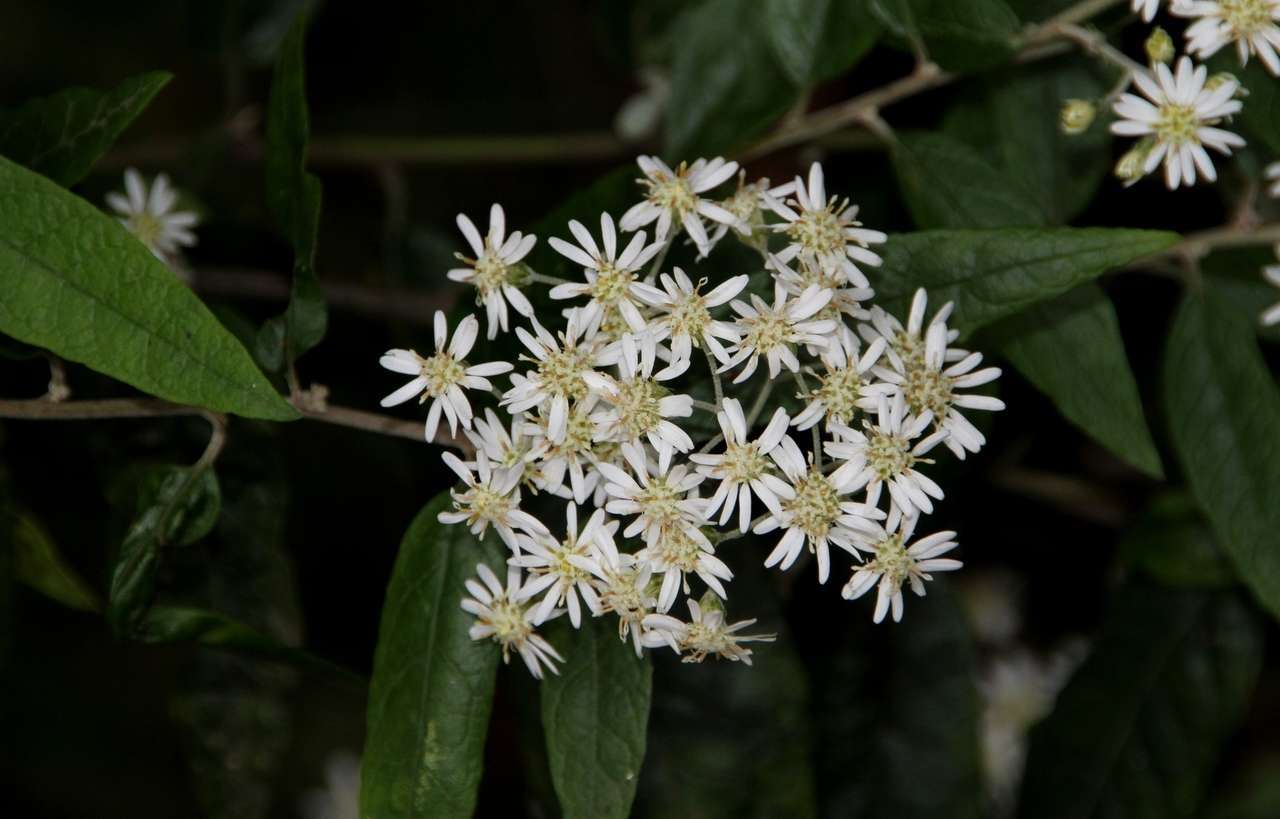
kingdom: Plantae
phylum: Tracheophyta
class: Magnoliopsida
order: Asterales
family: Asteraceae
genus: Olearia
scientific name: Olearia lirata
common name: Dusty daisybush
